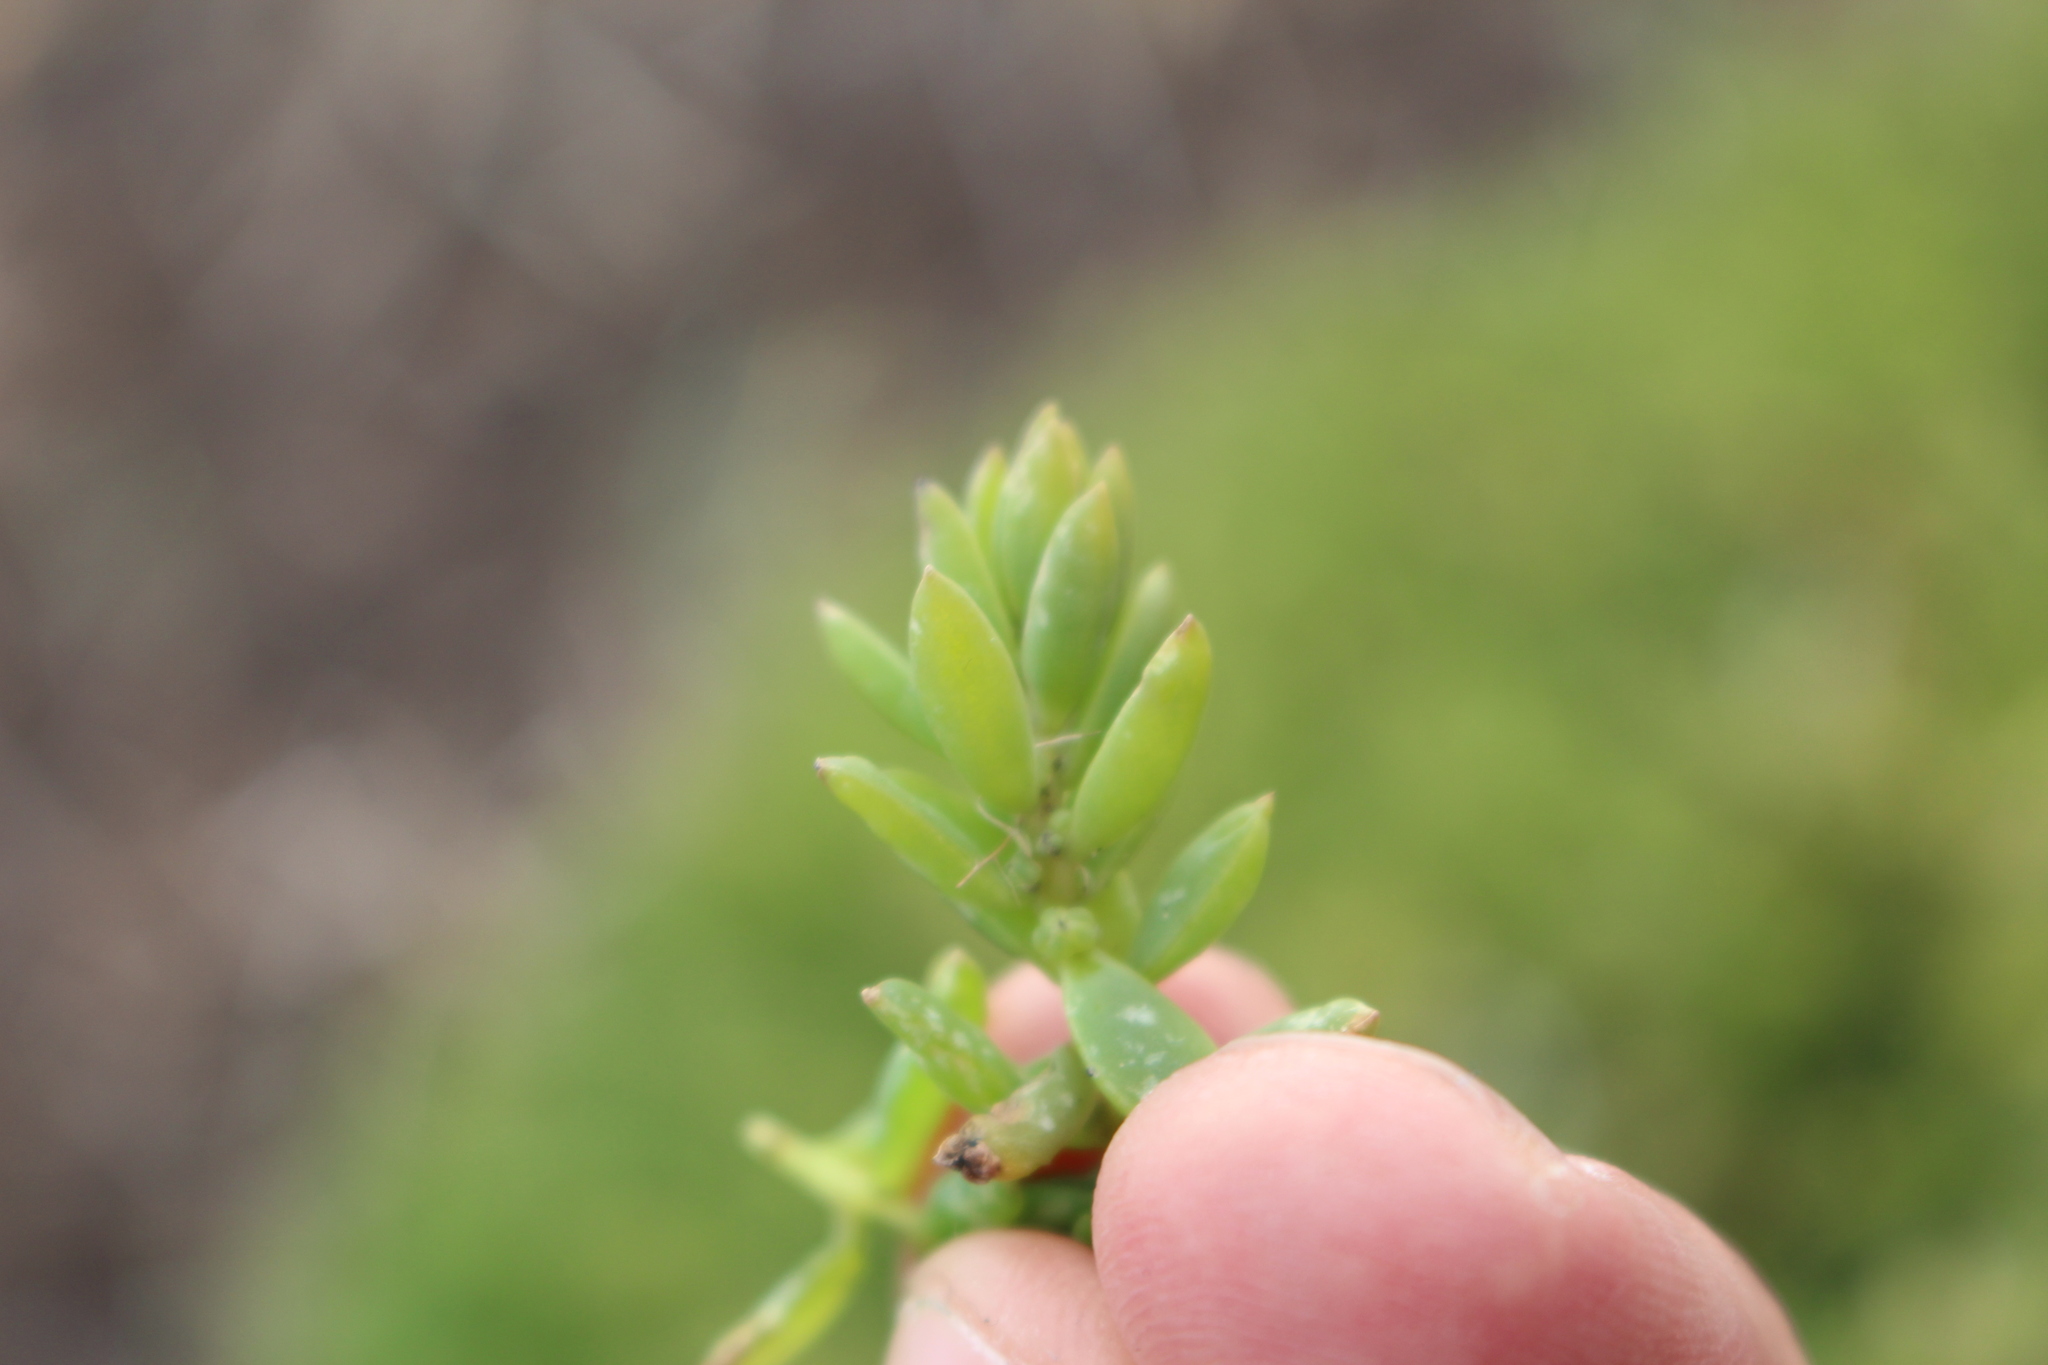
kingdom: Plantae
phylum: Tracheophyta
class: Magnoliopsida
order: Caryophyllales
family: Amaranthaceae
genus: Suaeda
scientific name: Suaeda novae-zelandiae
